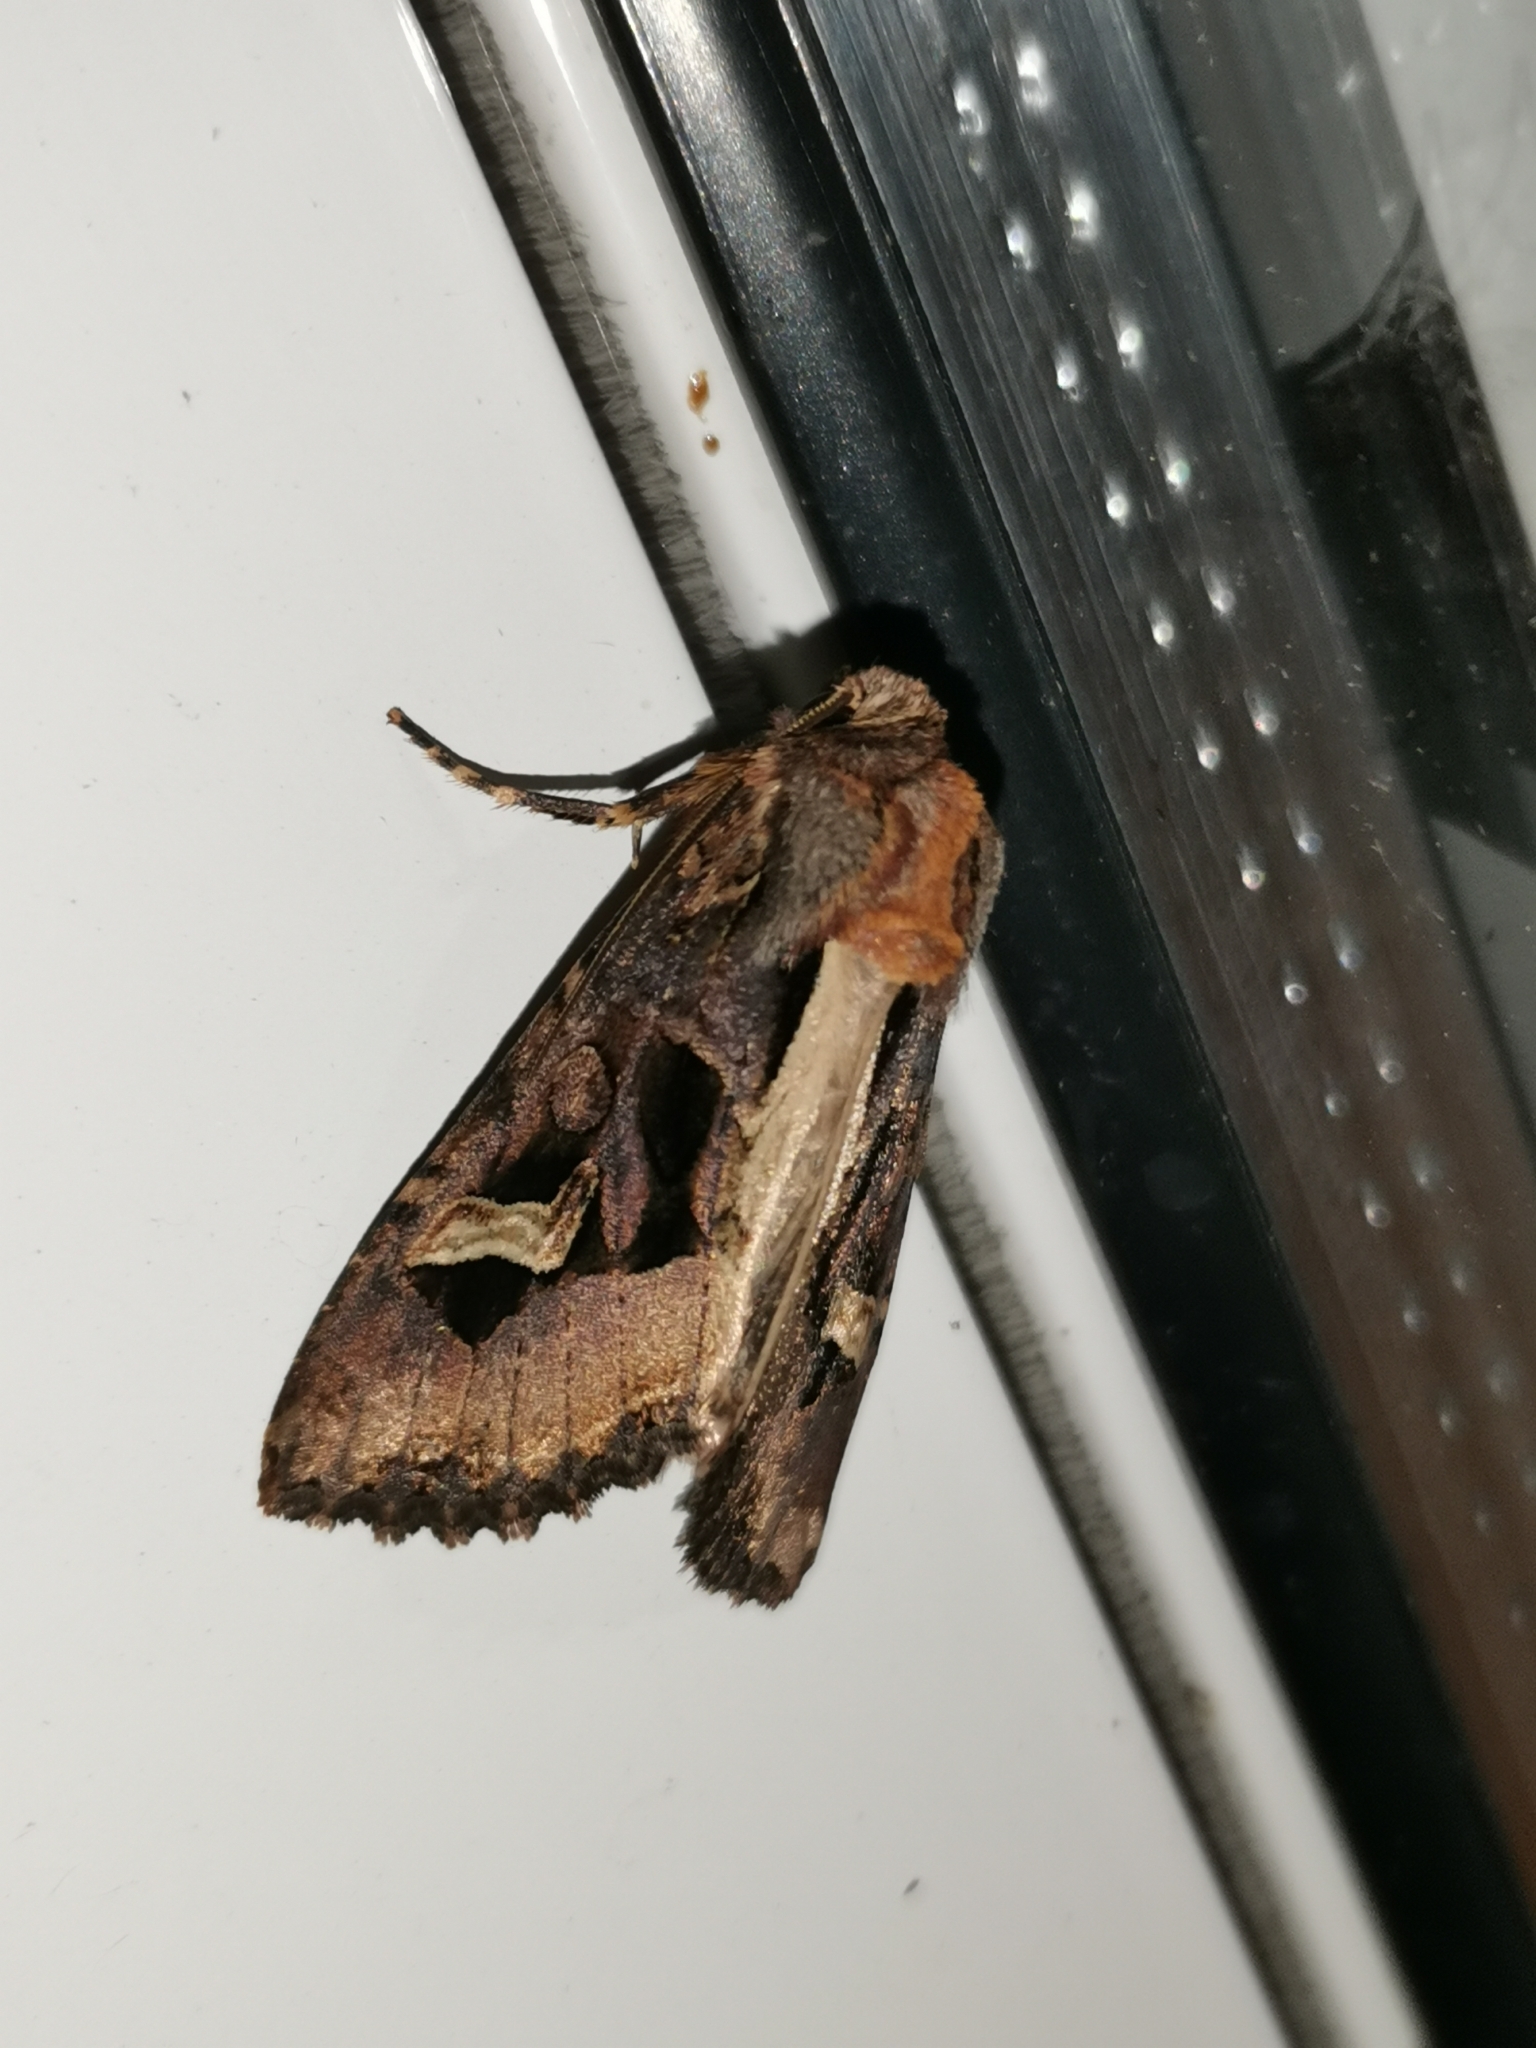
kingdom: Animalia
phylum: Arthropoda
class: Insecta
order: Lepidoptera
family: Noctuidae
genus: Trigonophora
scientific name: Trigonophora flammea
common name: Flame brocade
